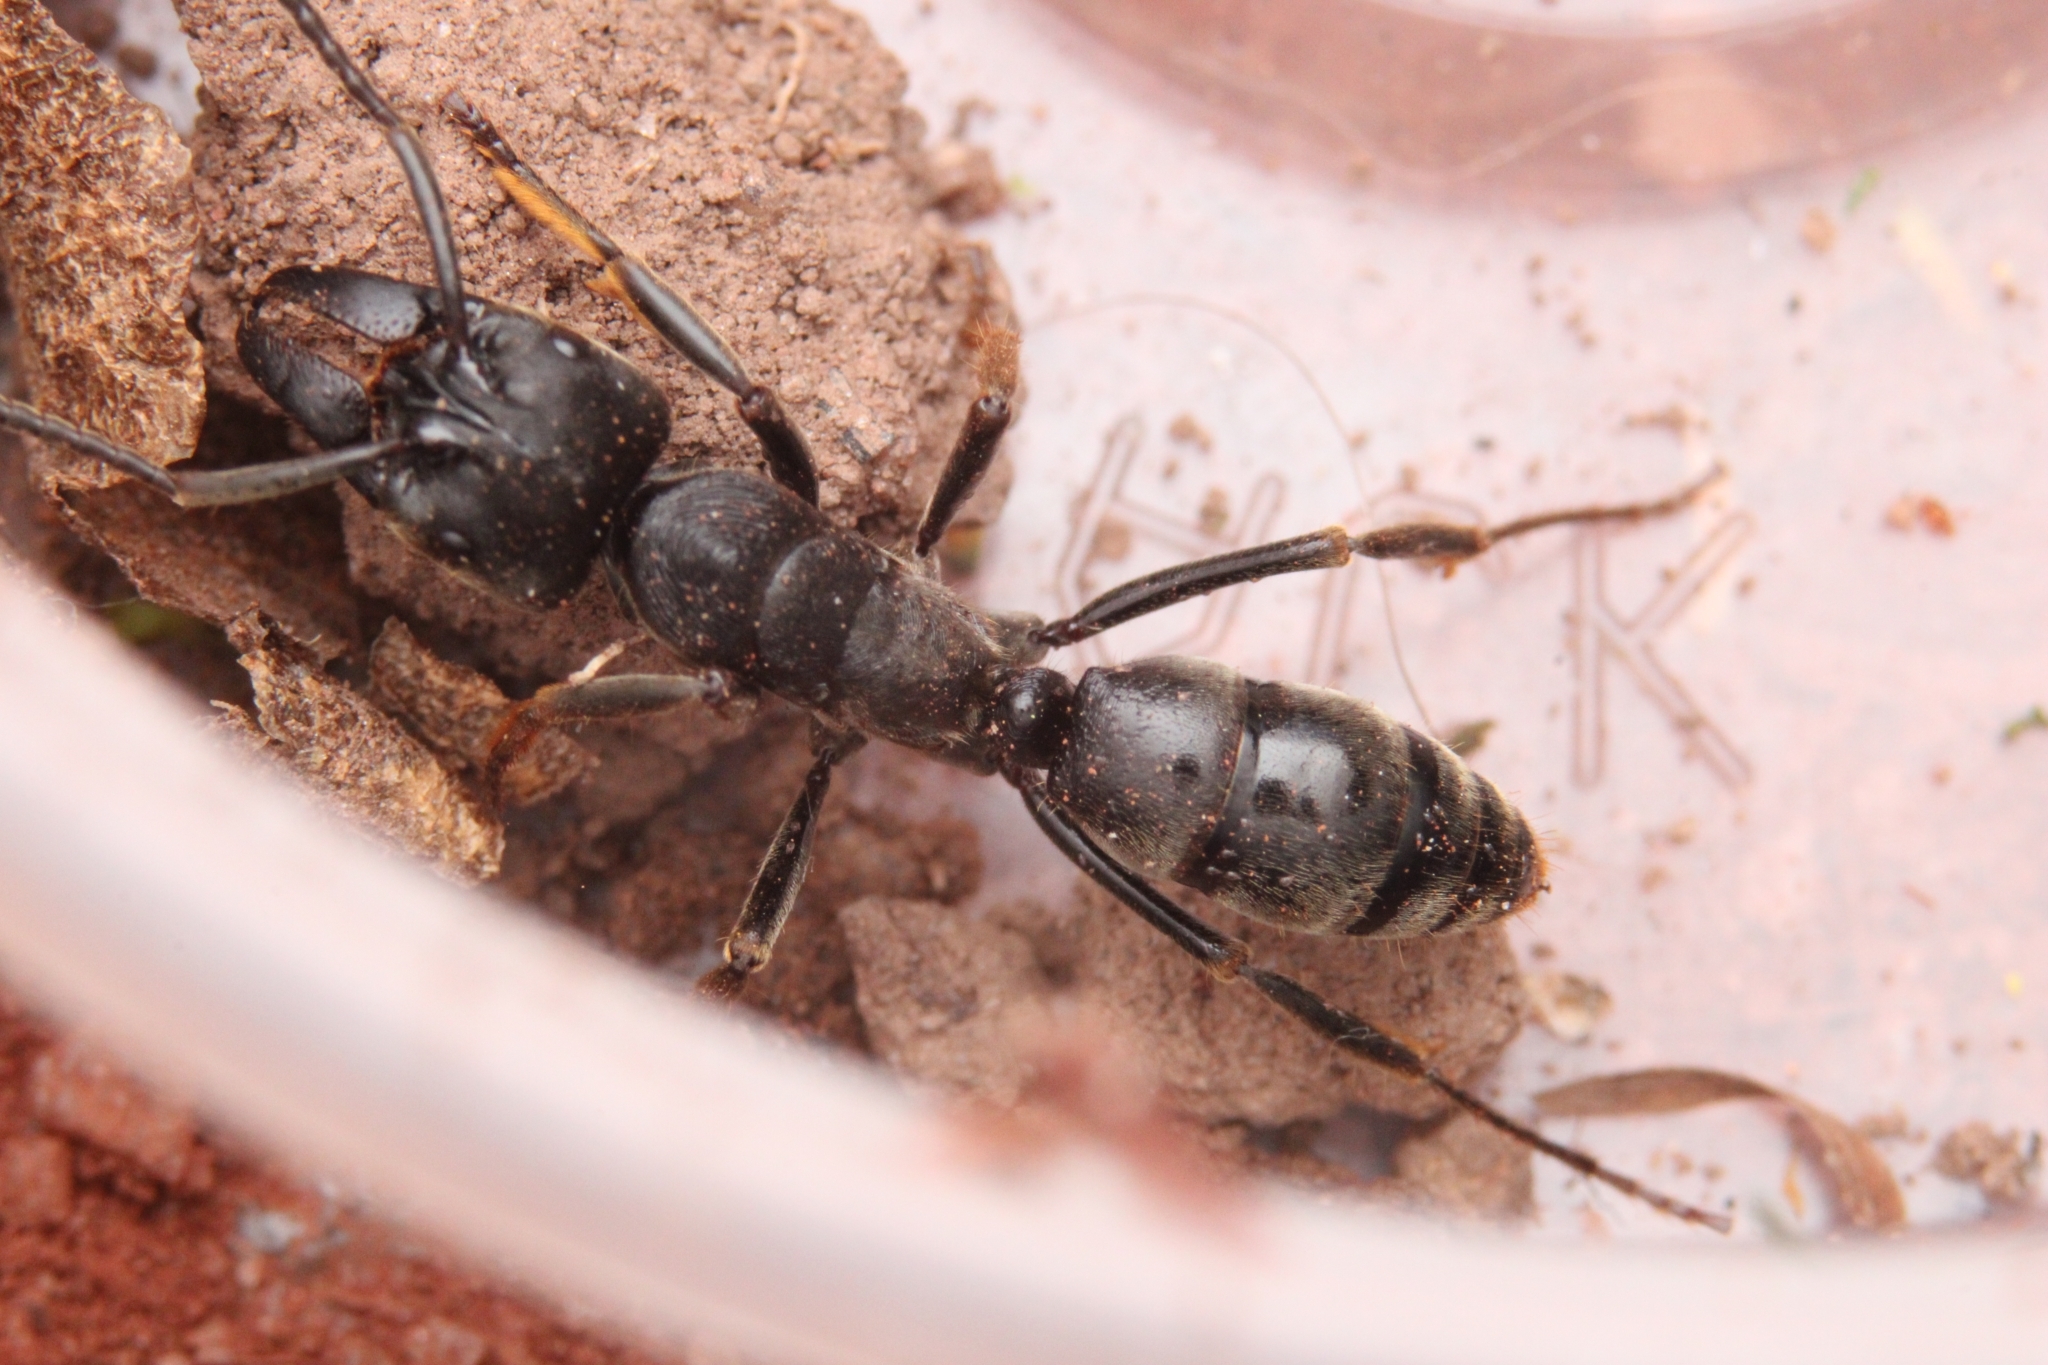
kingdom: Animalia
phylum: Arthropoda
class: Insecta
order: Hymenoptera
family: Formicidae
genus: Paltothyreus
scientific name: Paltothyreus tarsatus
